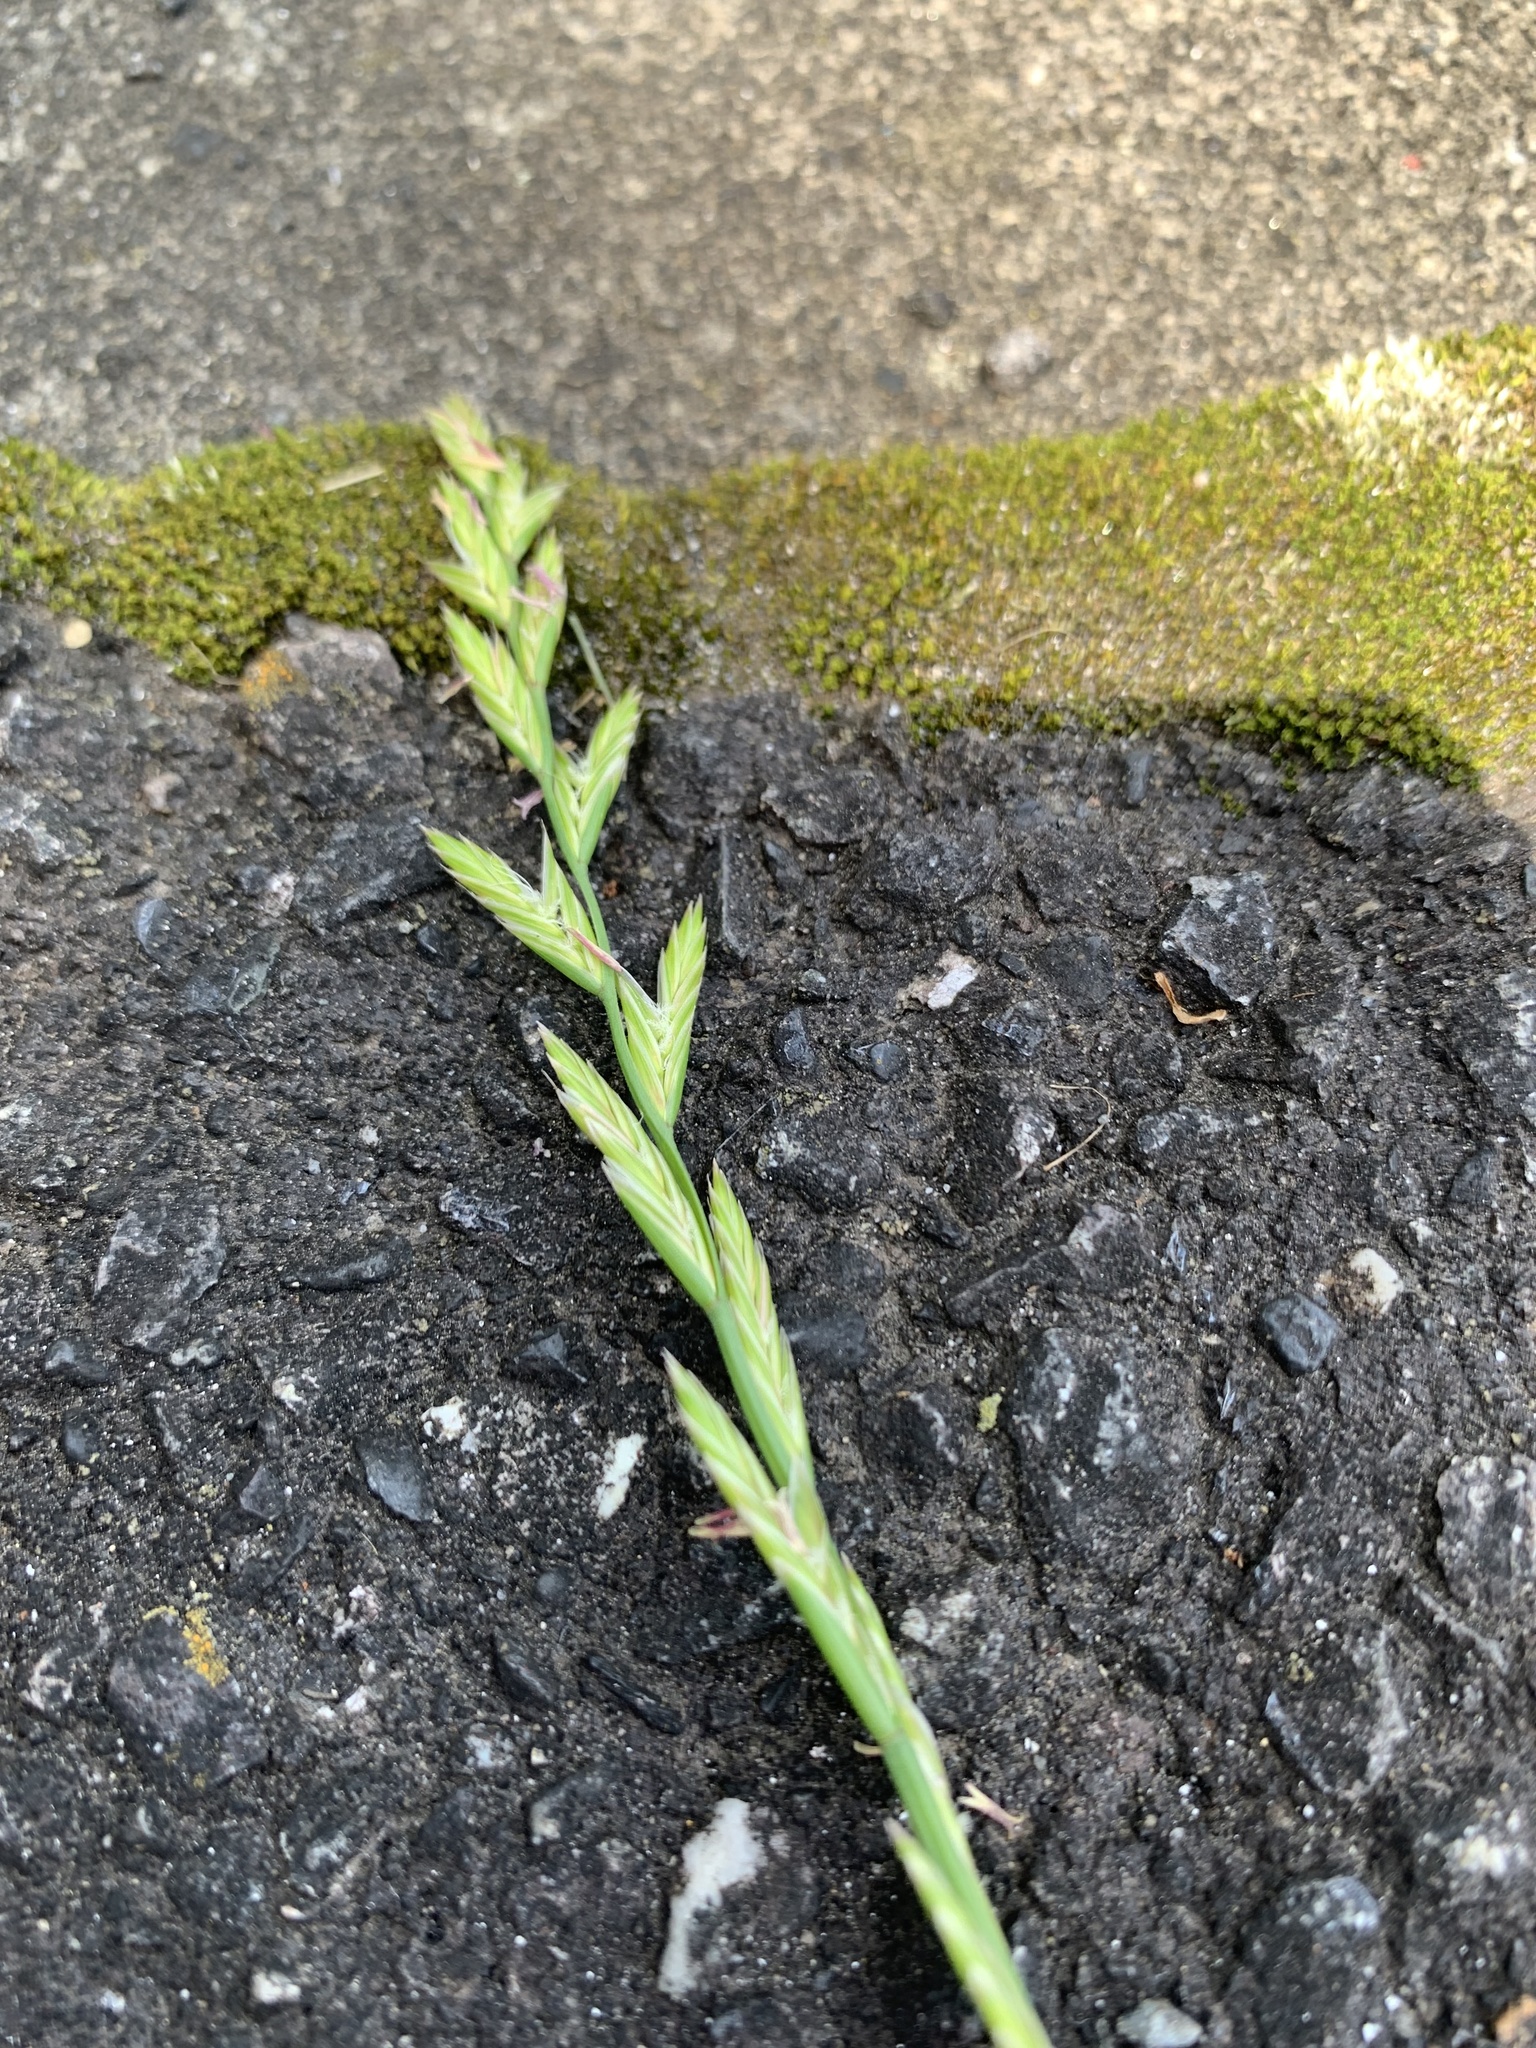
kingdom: Plantae
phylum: Tracheophyta
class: Liliopsida
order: Poales
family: Poaceae
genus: Lolium
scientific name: Lolium perenne
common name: Perennial ryegrass
